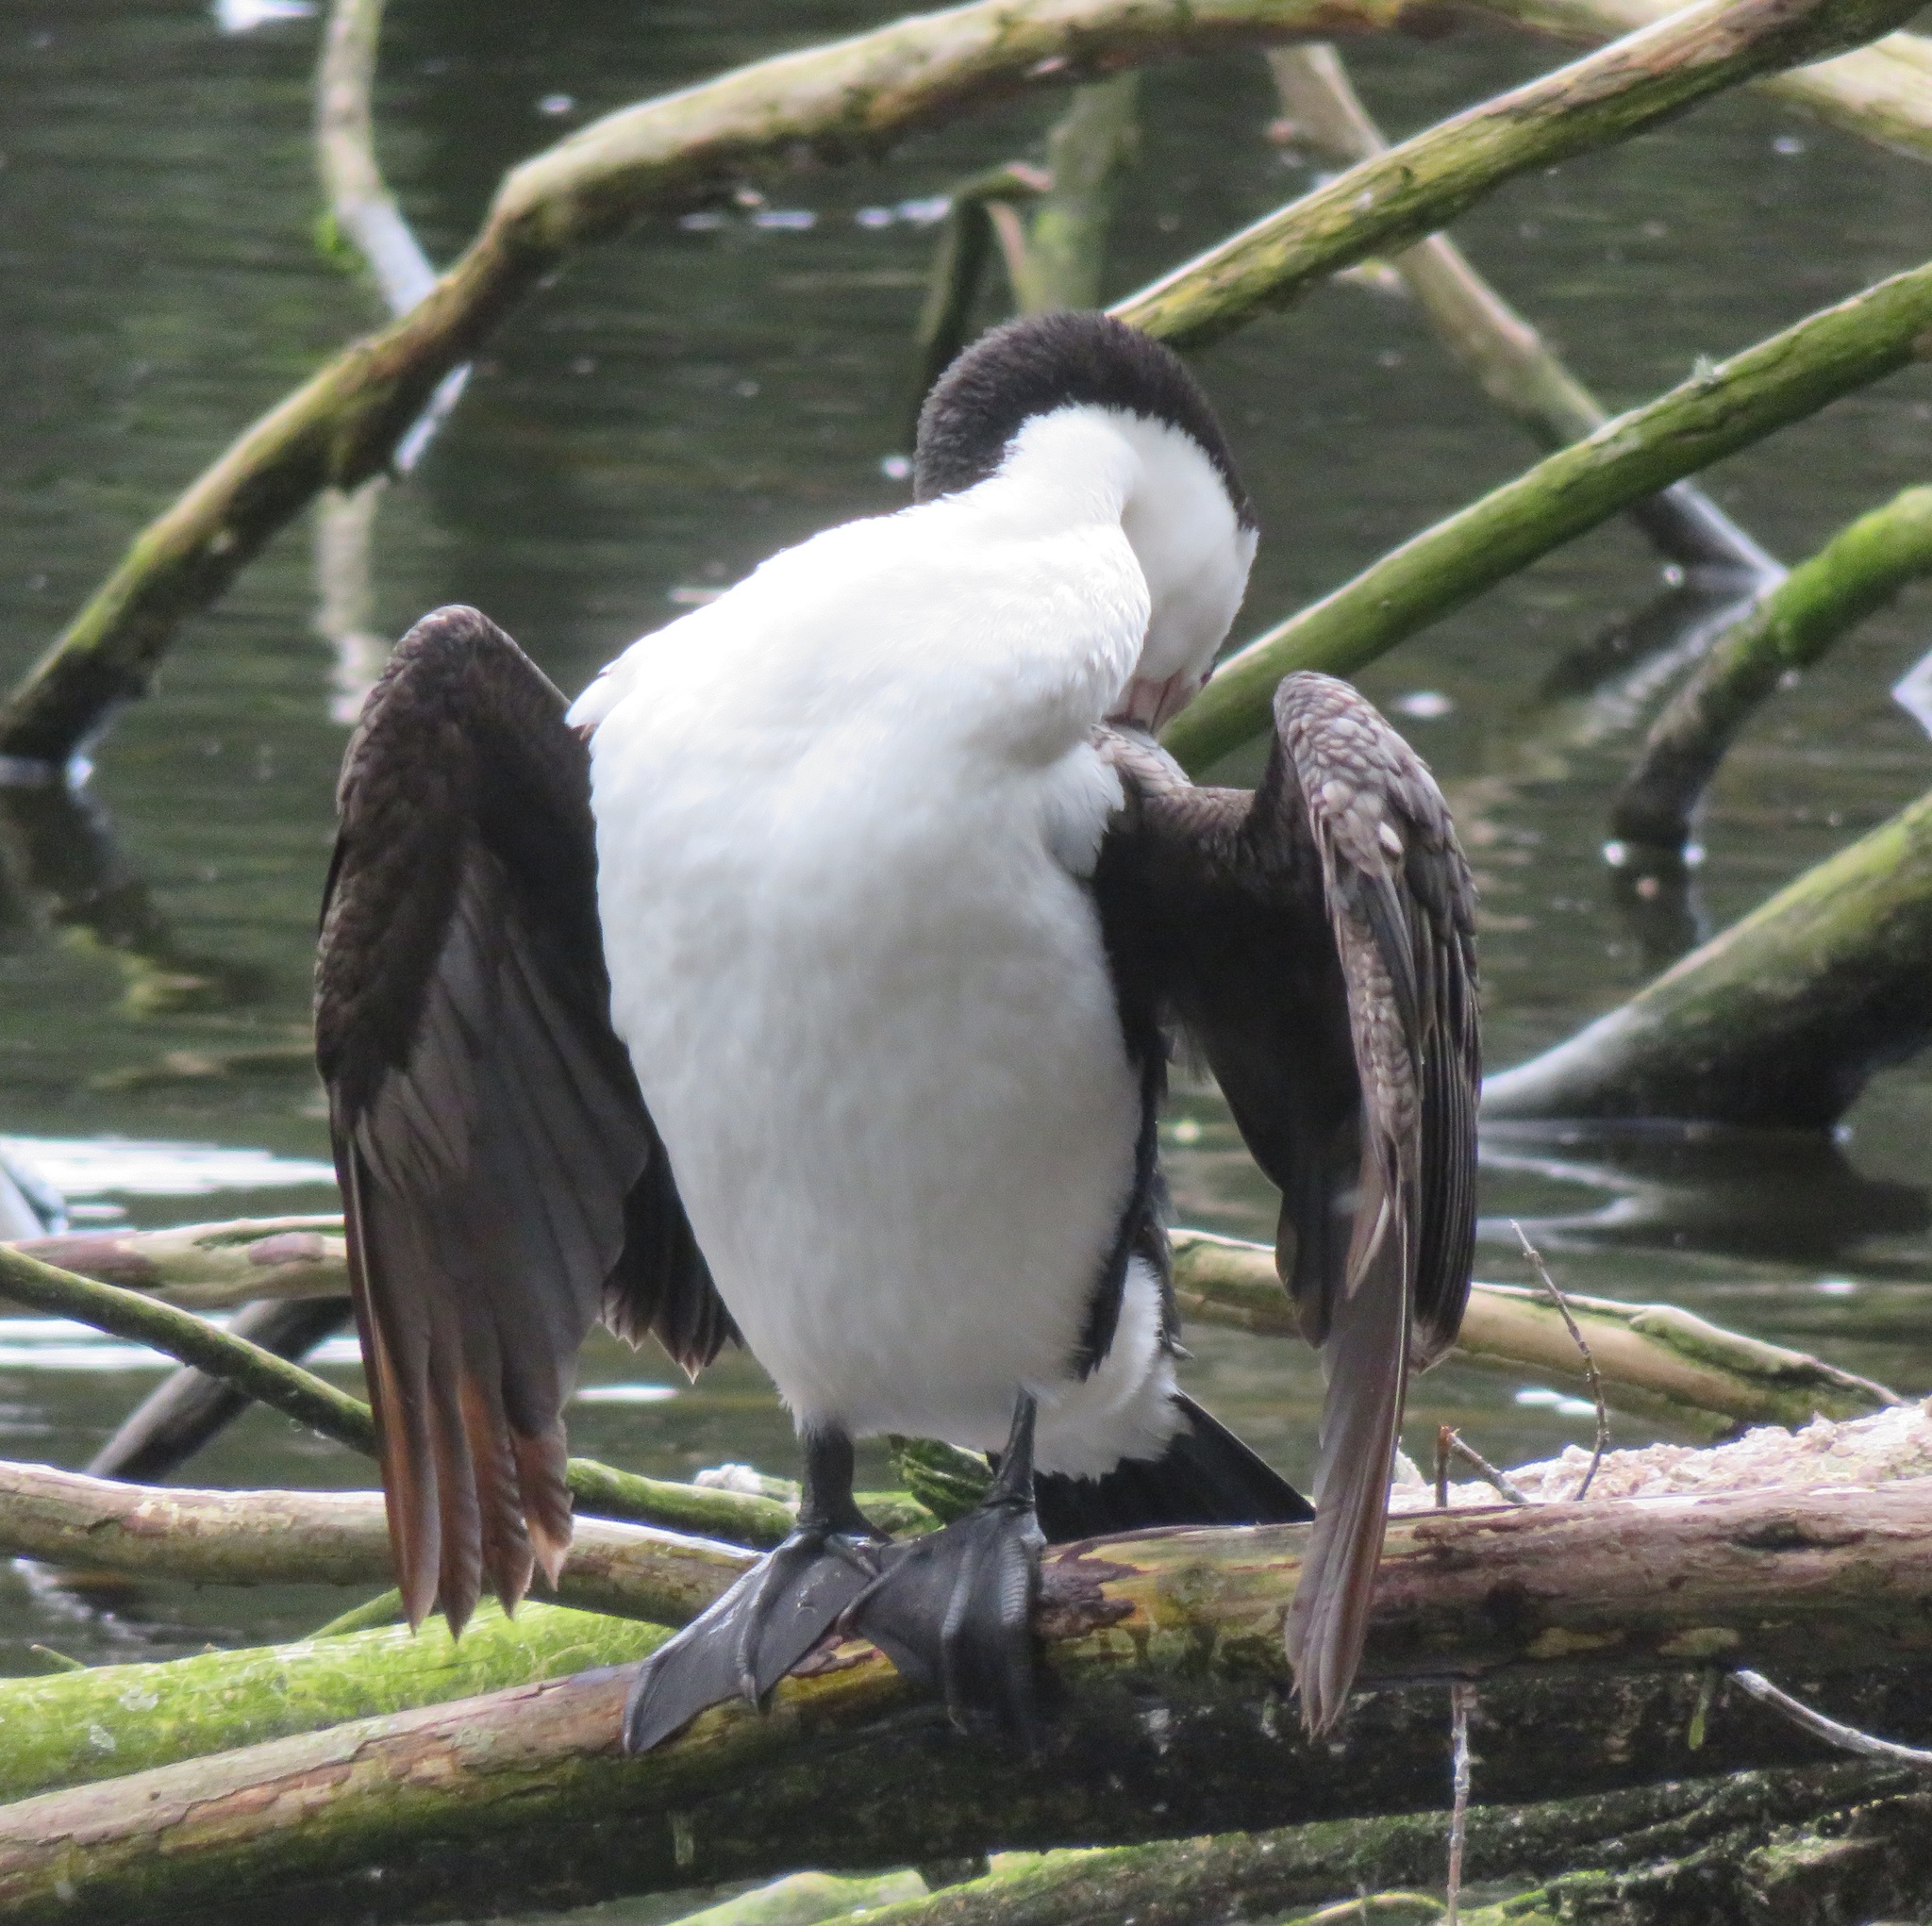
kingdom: Animalia
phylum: Chordata
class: Aves
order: Suliformes
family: Phalacrocoracidae
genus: Phalacrocorax
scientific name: Phalacrocorax varius
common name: Pied cormorant
